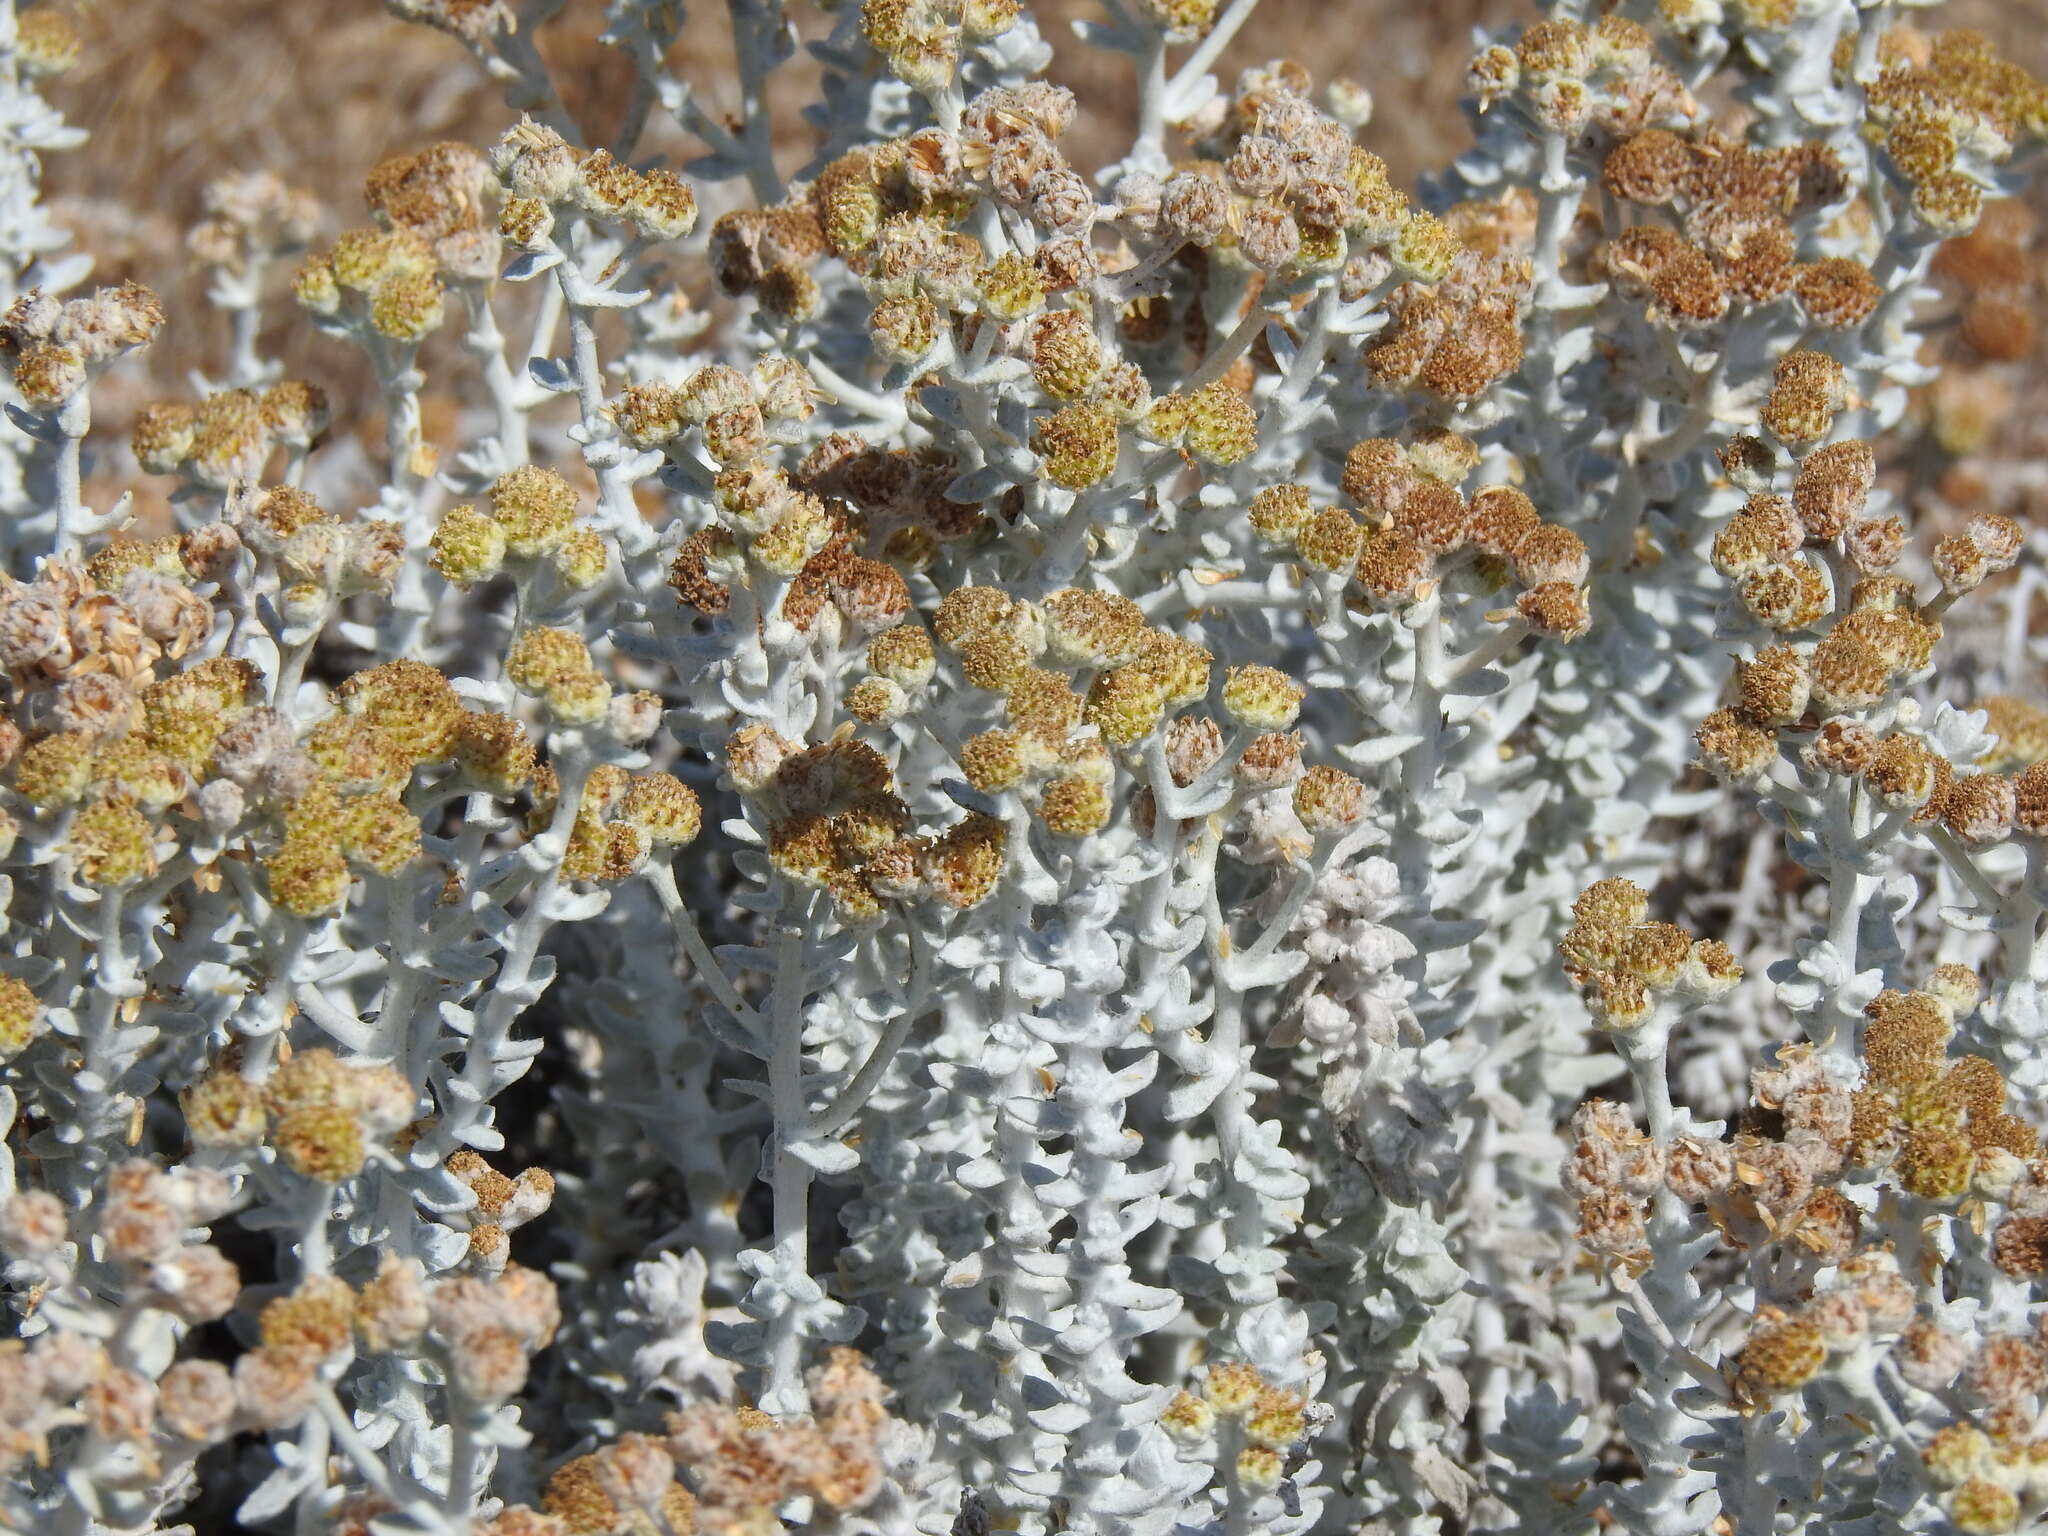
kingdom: Plantae
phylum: Tracheophyta
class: Magnoliopsida
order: Asterales
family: Asteraceae
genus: Achillea
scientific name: Achillea maritima
